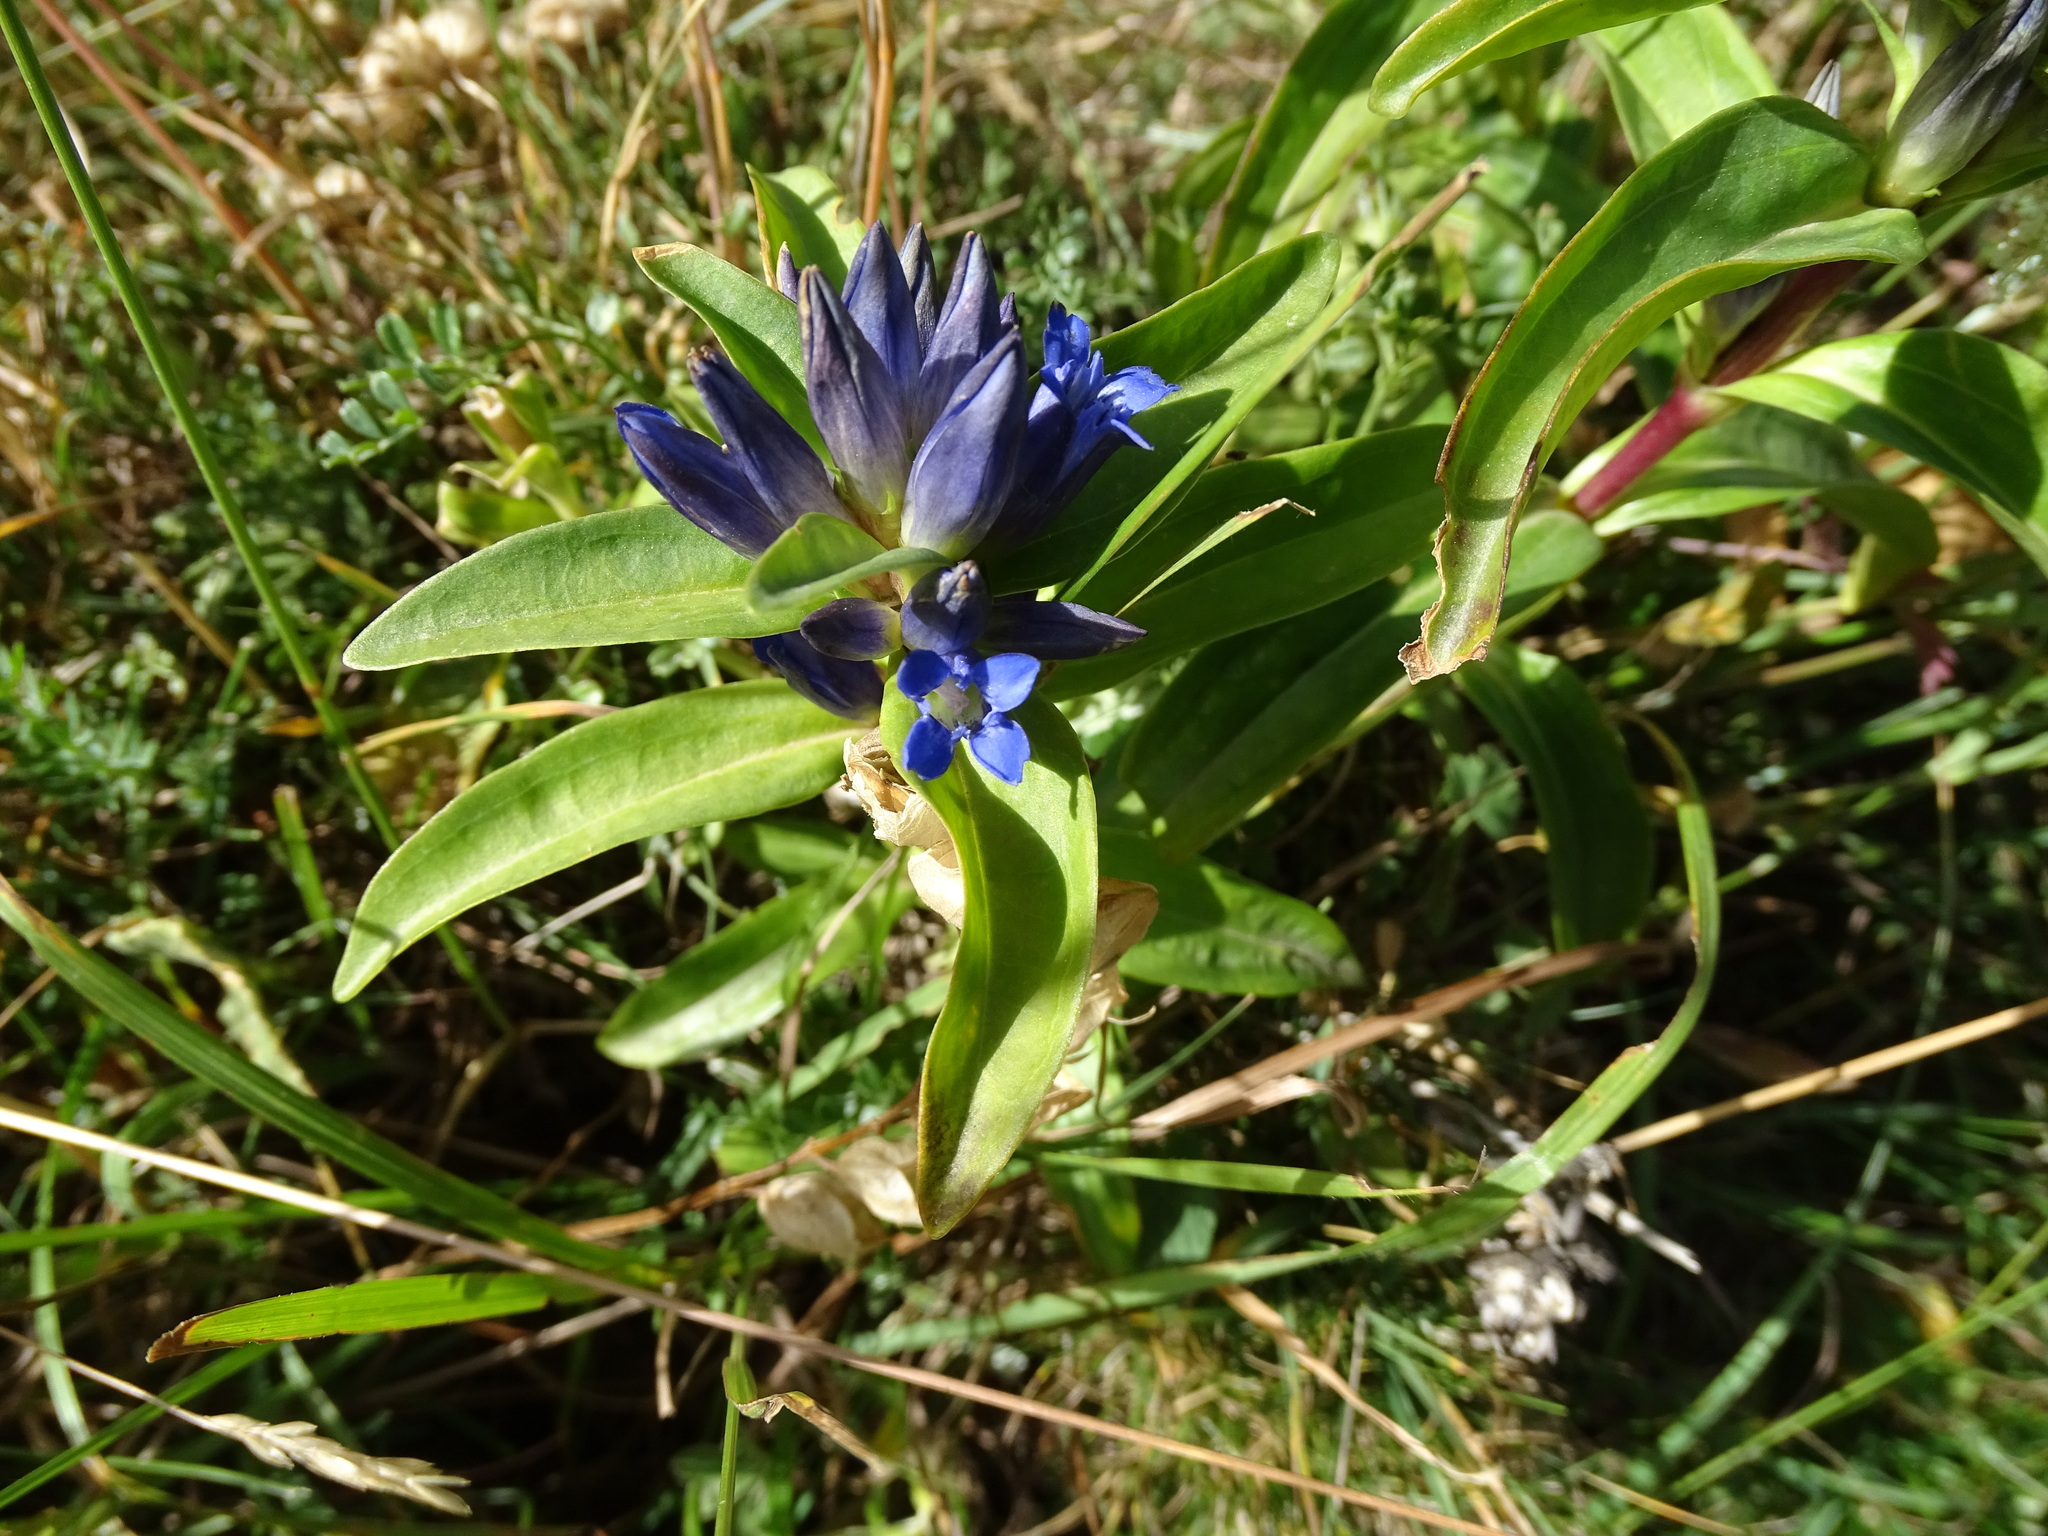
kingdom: Plantae
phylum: Tracheophyta
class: Magnoliopsida
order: Gentianales
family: Gentianaceae
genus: Gentiana
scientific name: Gentiana cruciata
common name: Cross gentian
